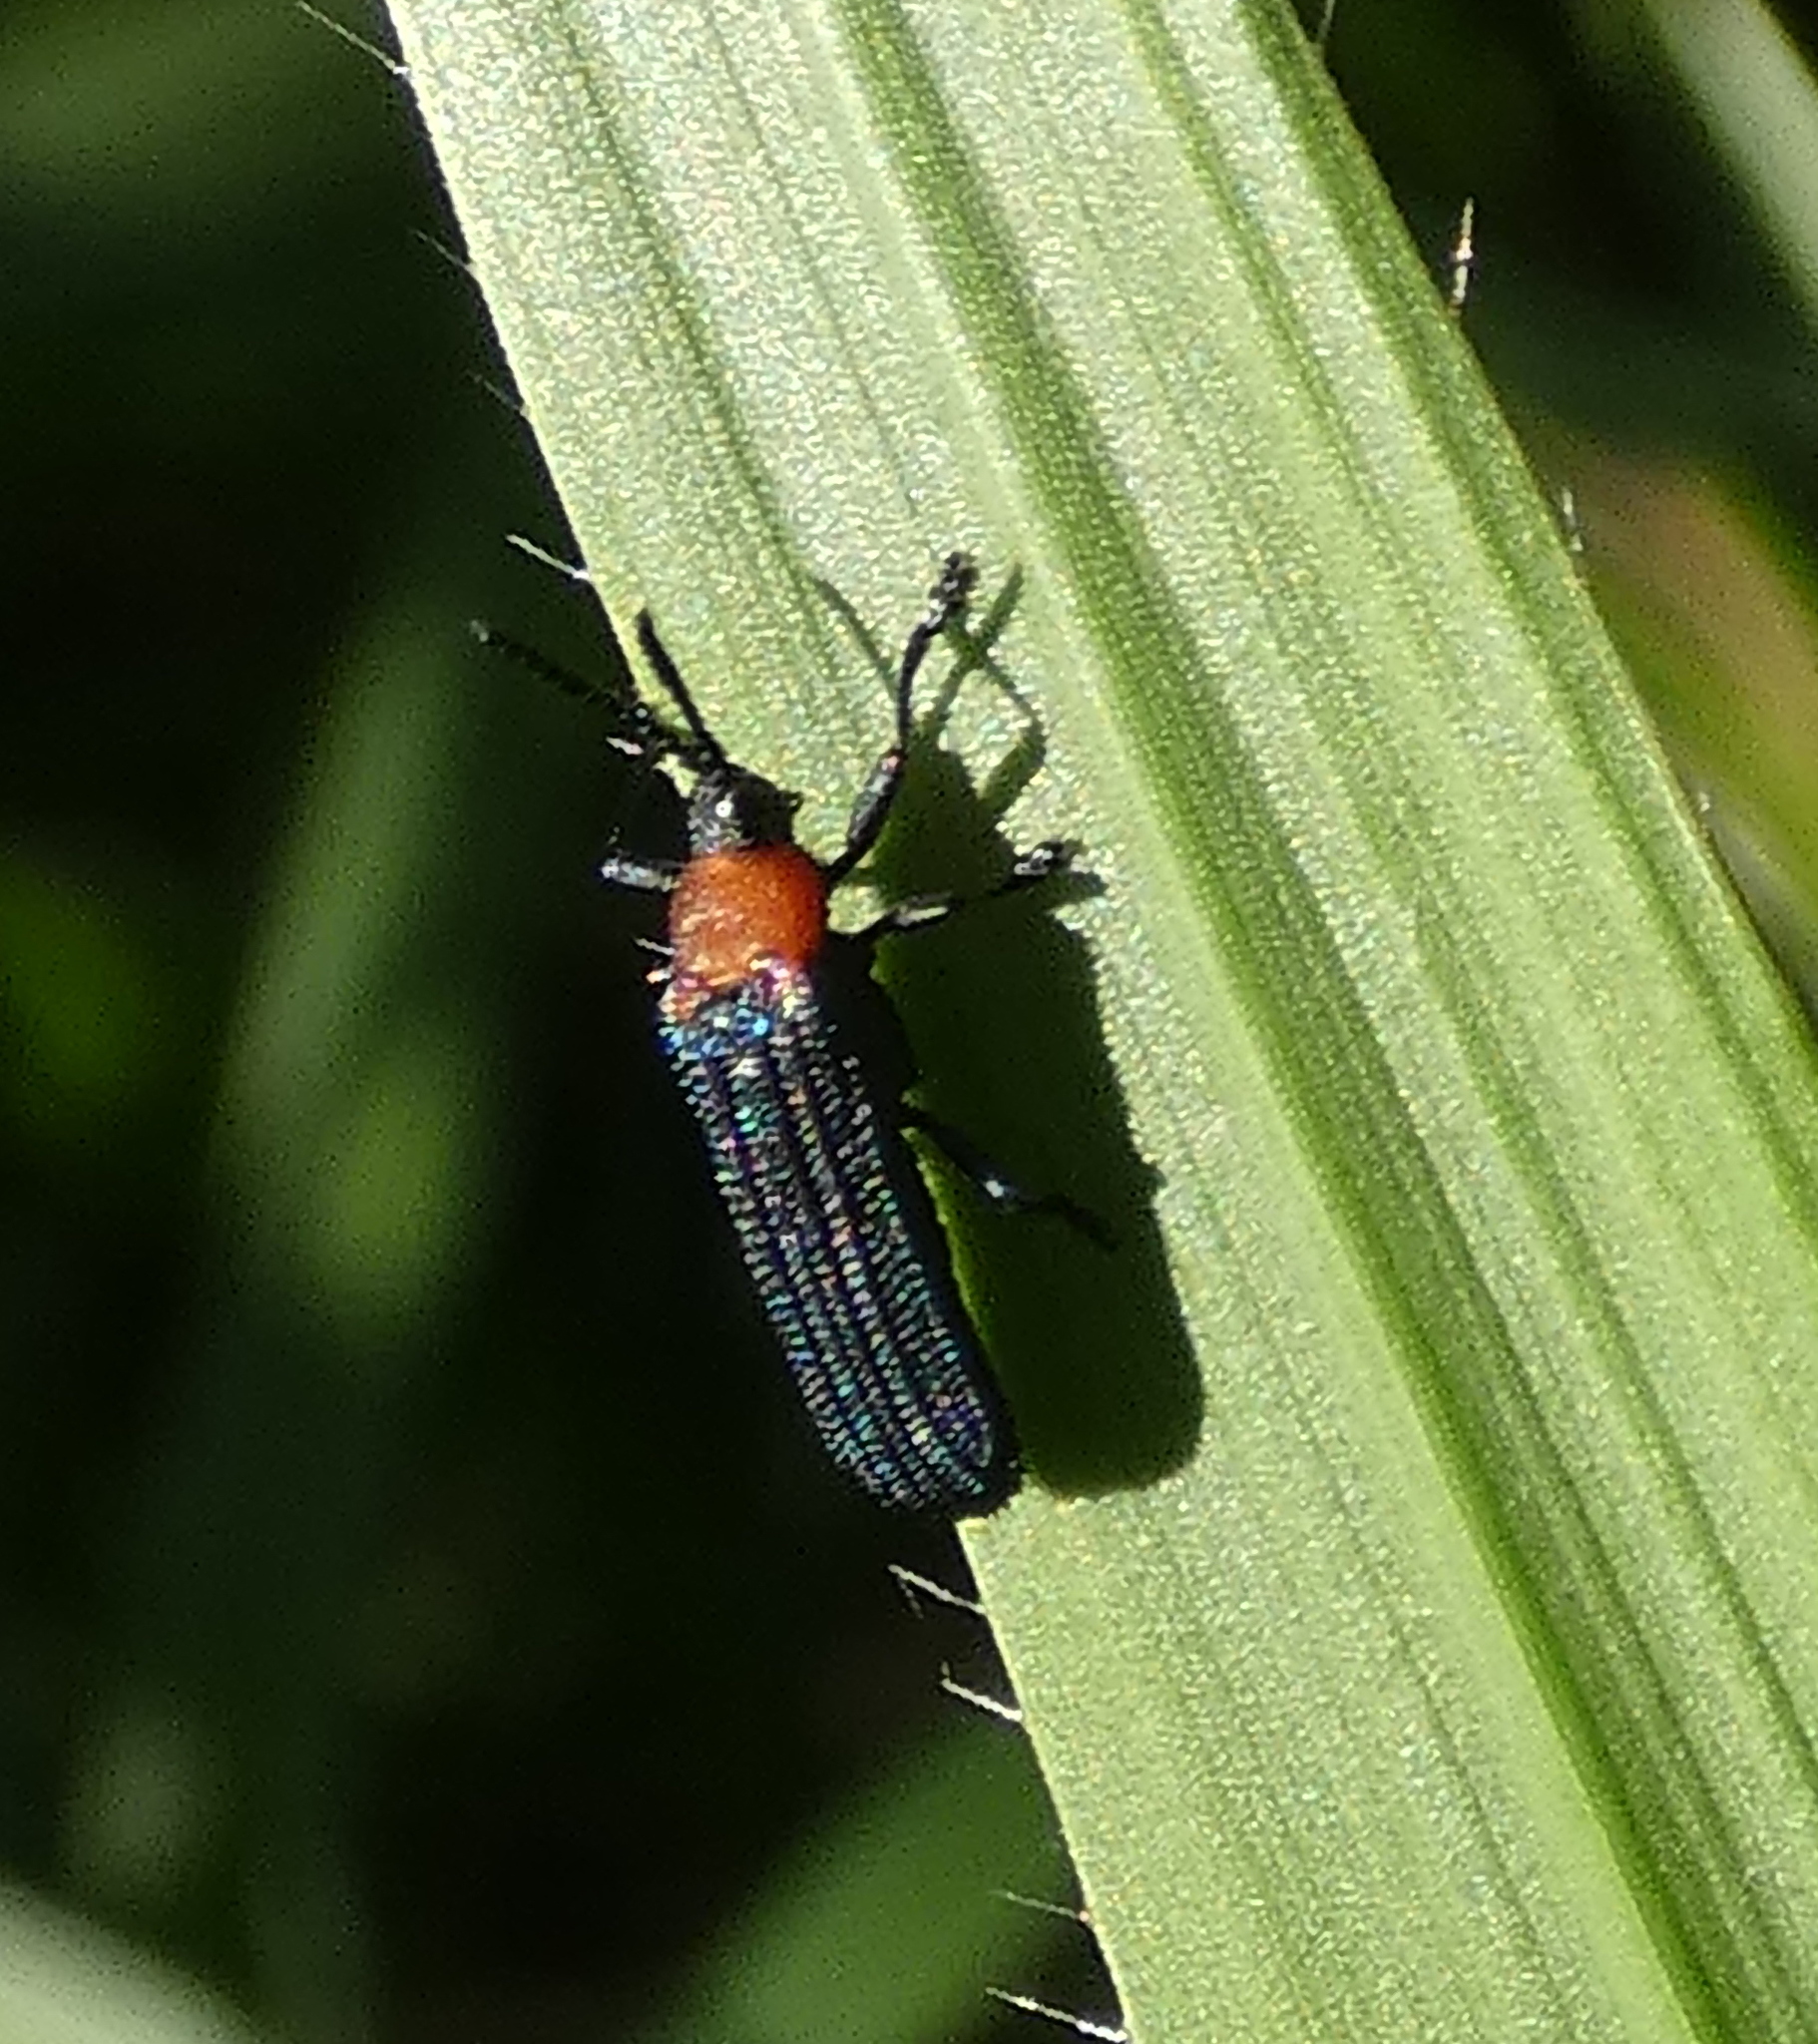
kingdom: Animalia
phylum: Arthropoda
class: Insecta
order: Coleoptera
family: Chrysomelidae
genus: Chalepus
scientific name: Chalepus notula
